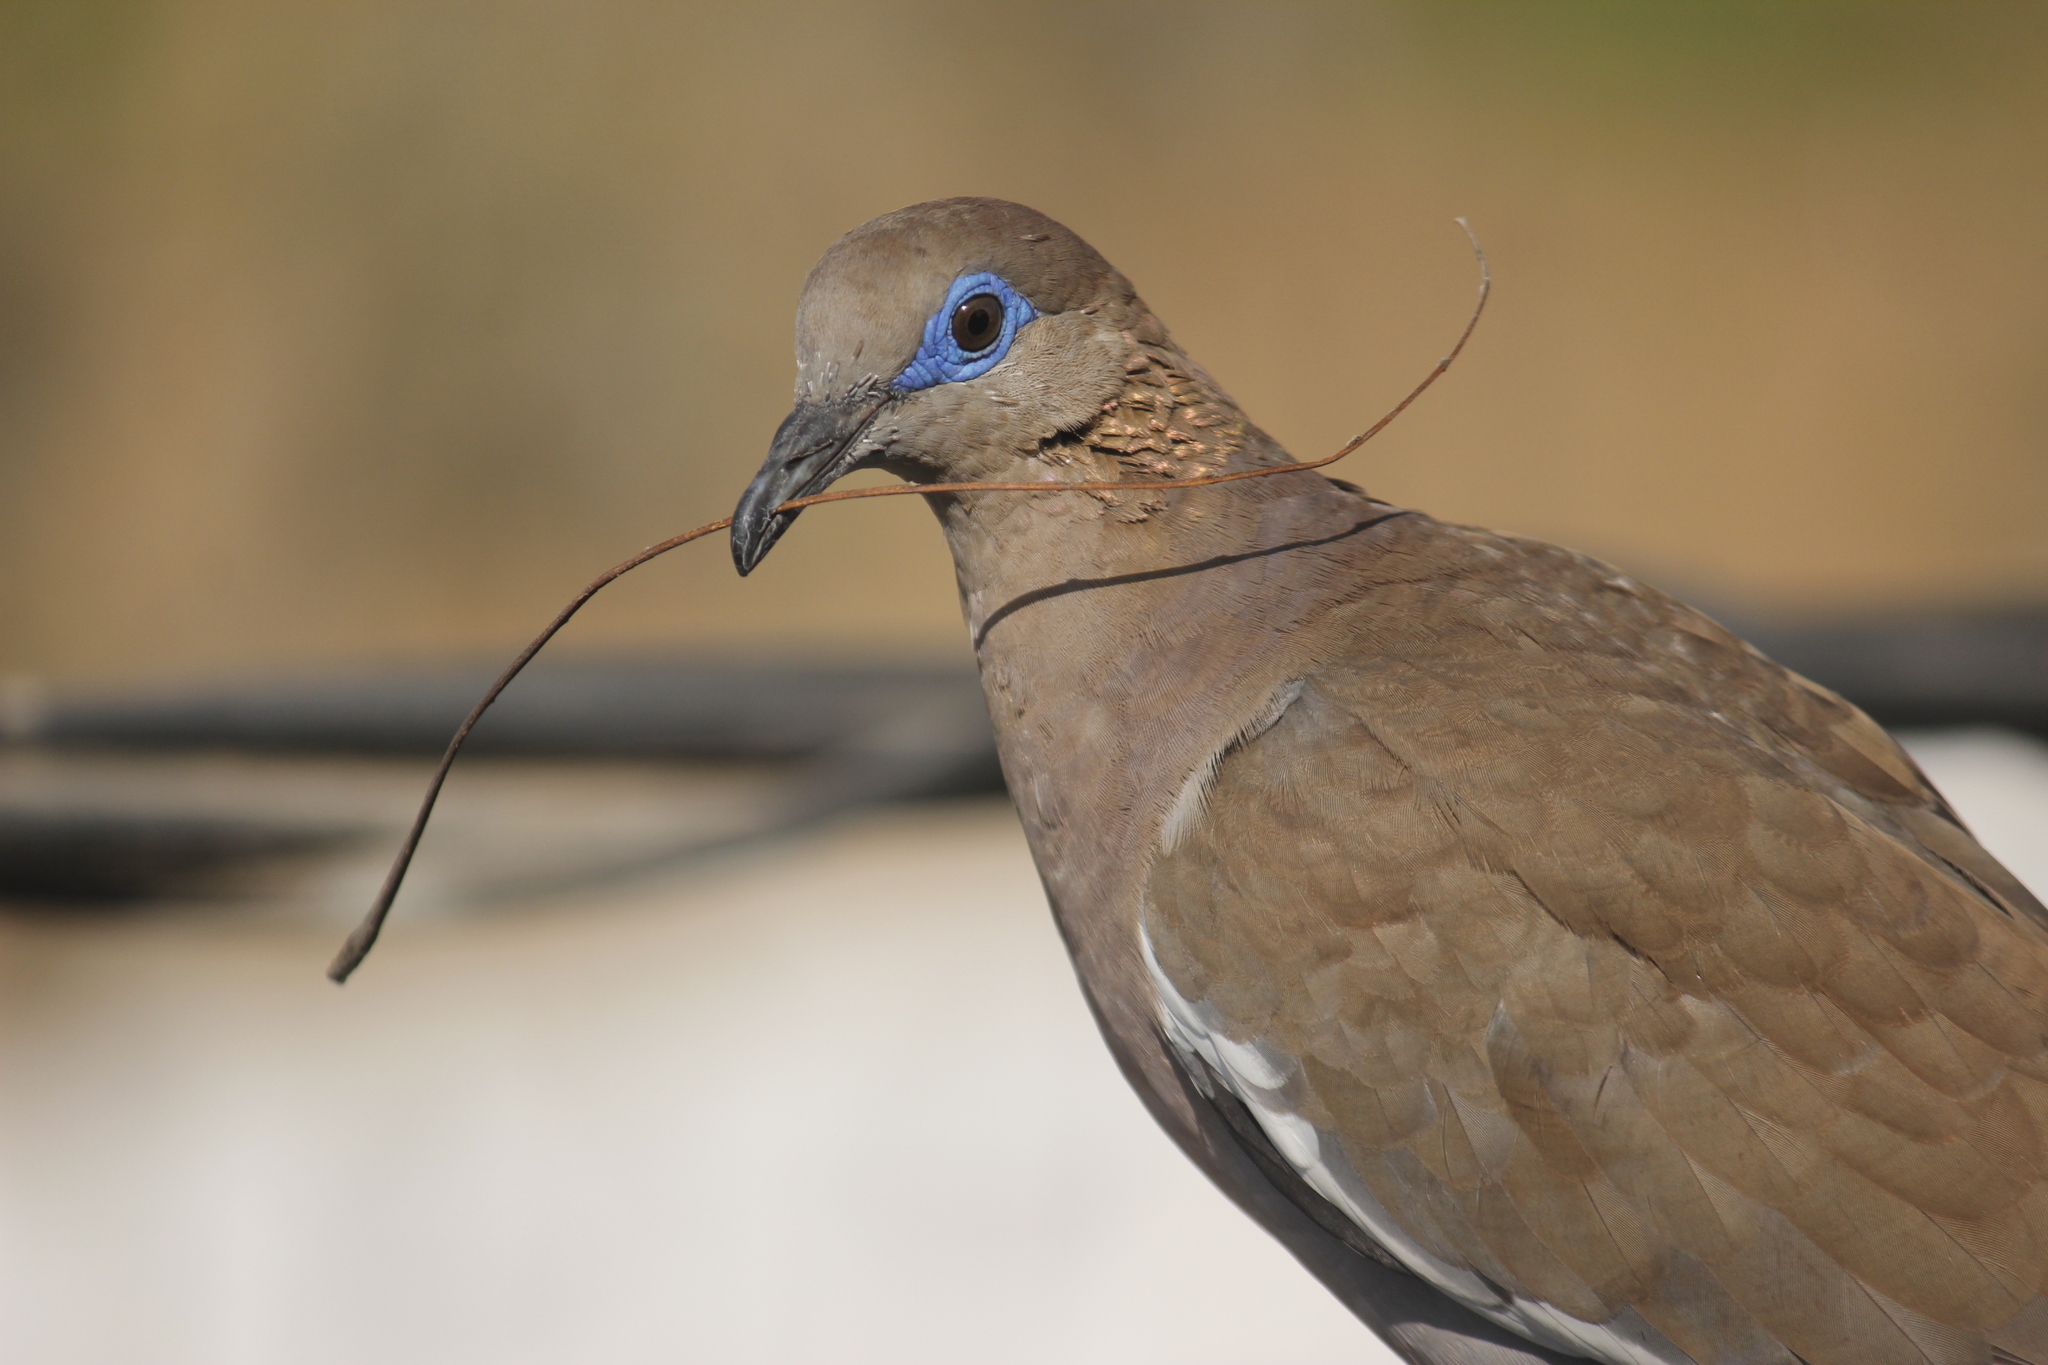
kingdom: Animalia
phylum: Chordata
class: Aves
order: Columbiformes
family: Columbidae
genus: Zenaida
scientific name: Zenaida meloda
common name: West peruvian dove
